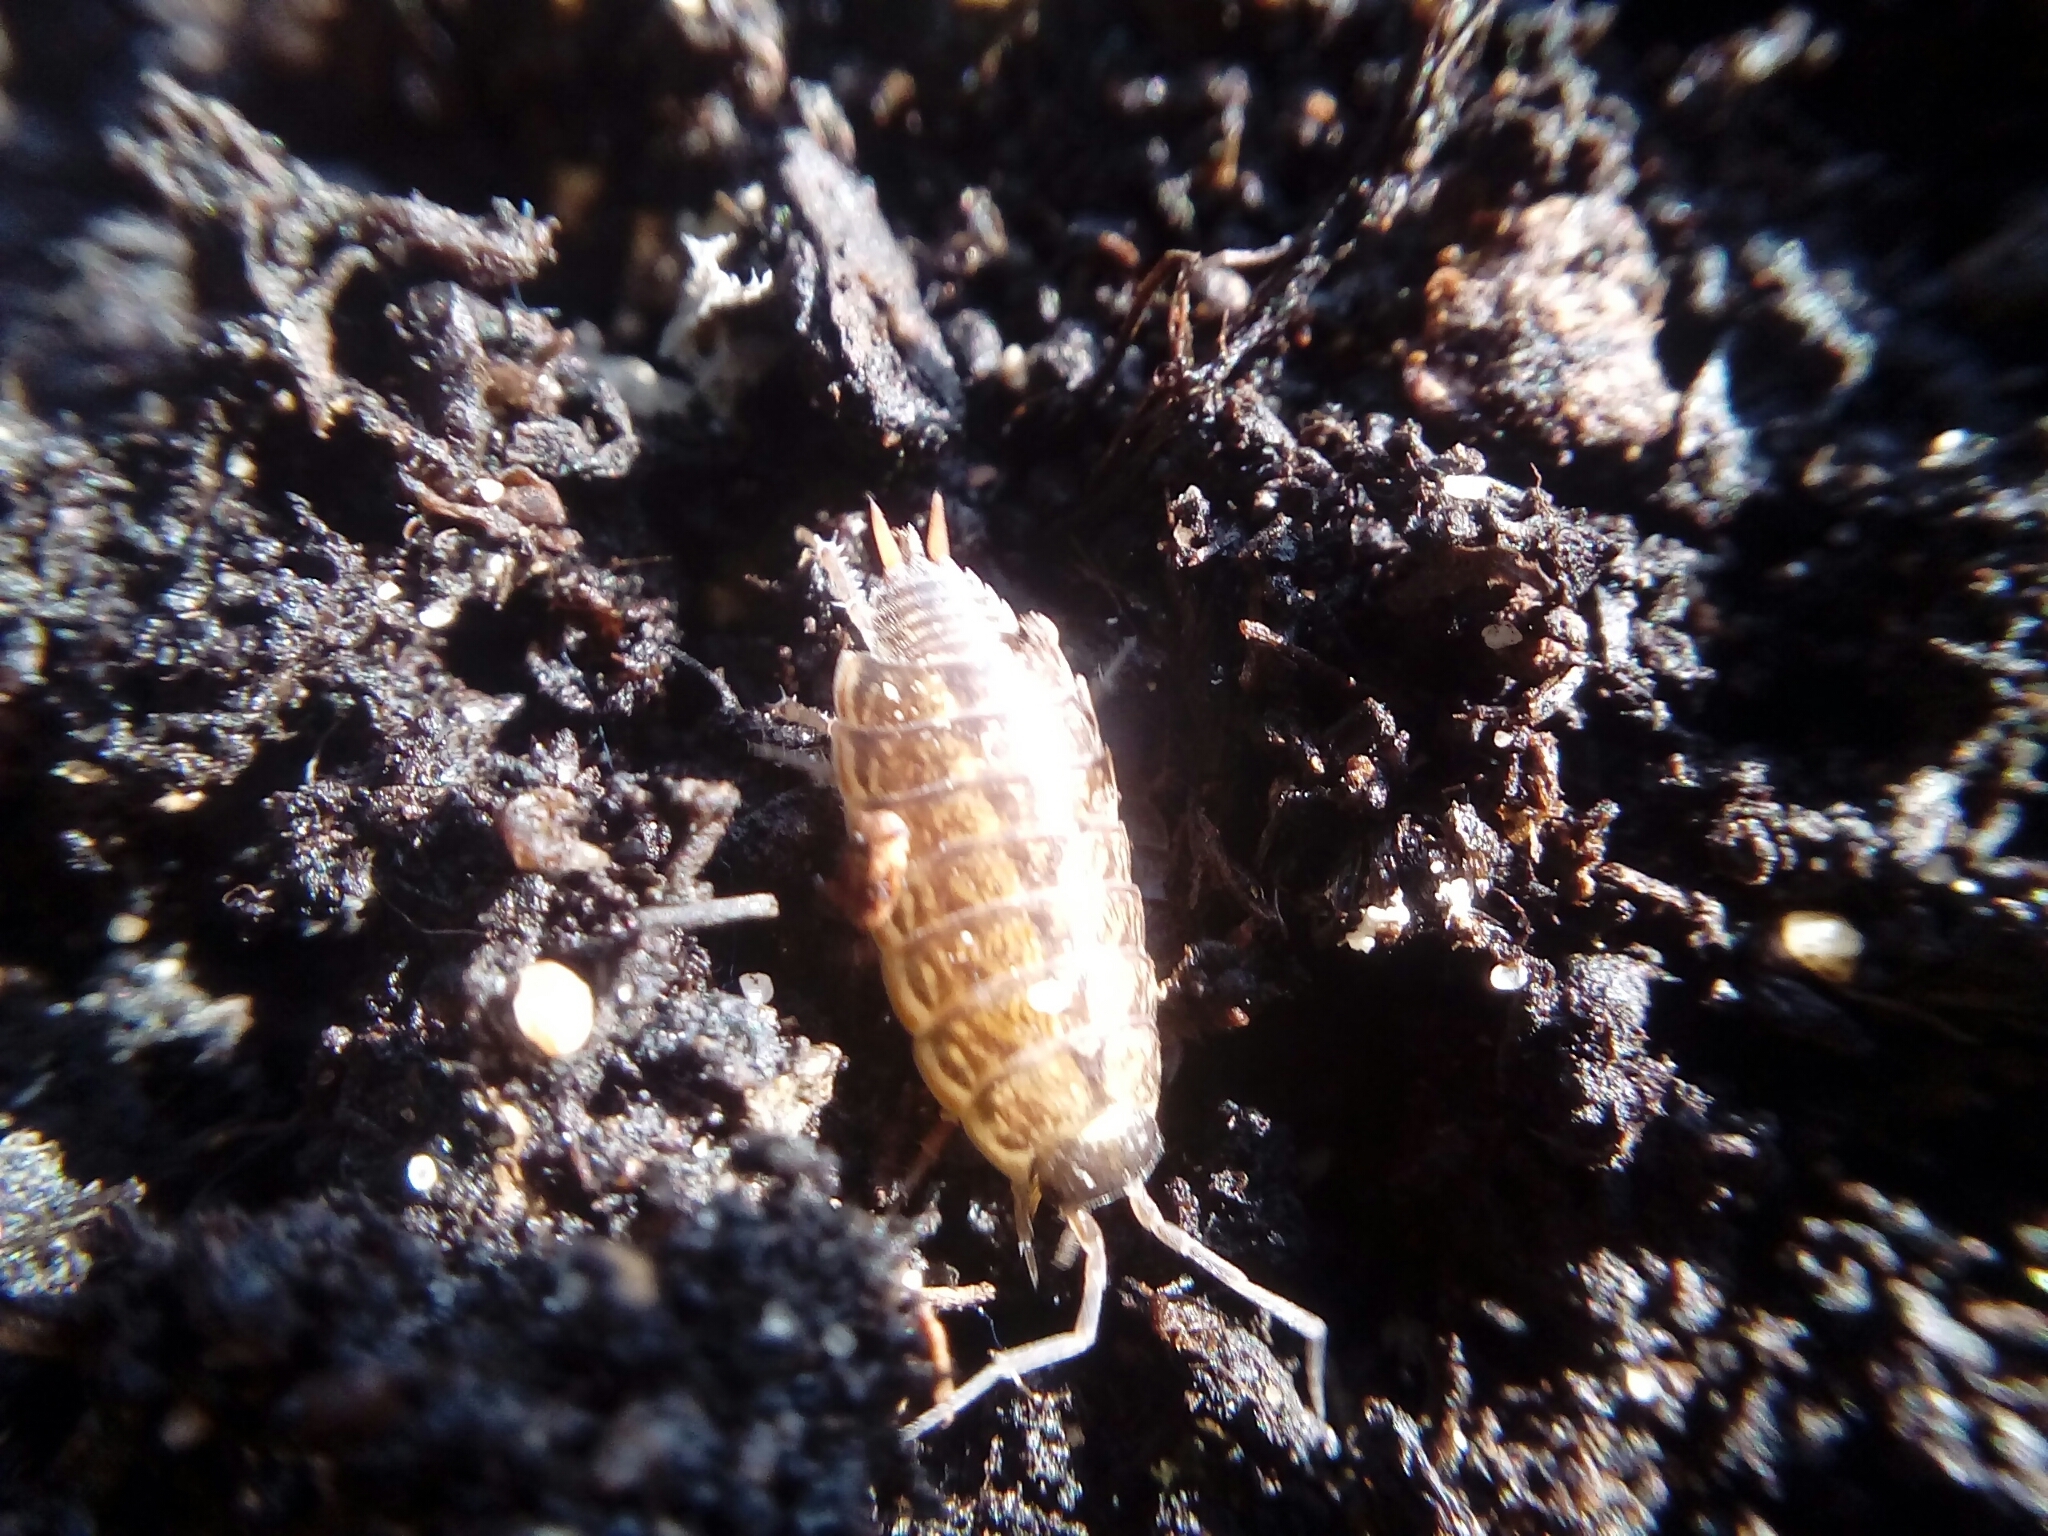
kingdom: Animalia
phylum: Arthropoda
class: Malacostraca
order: Isopoda
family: Philosciidae
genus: Philoscia
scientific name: Philoscia muscorum
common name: Common striped woodlouse
